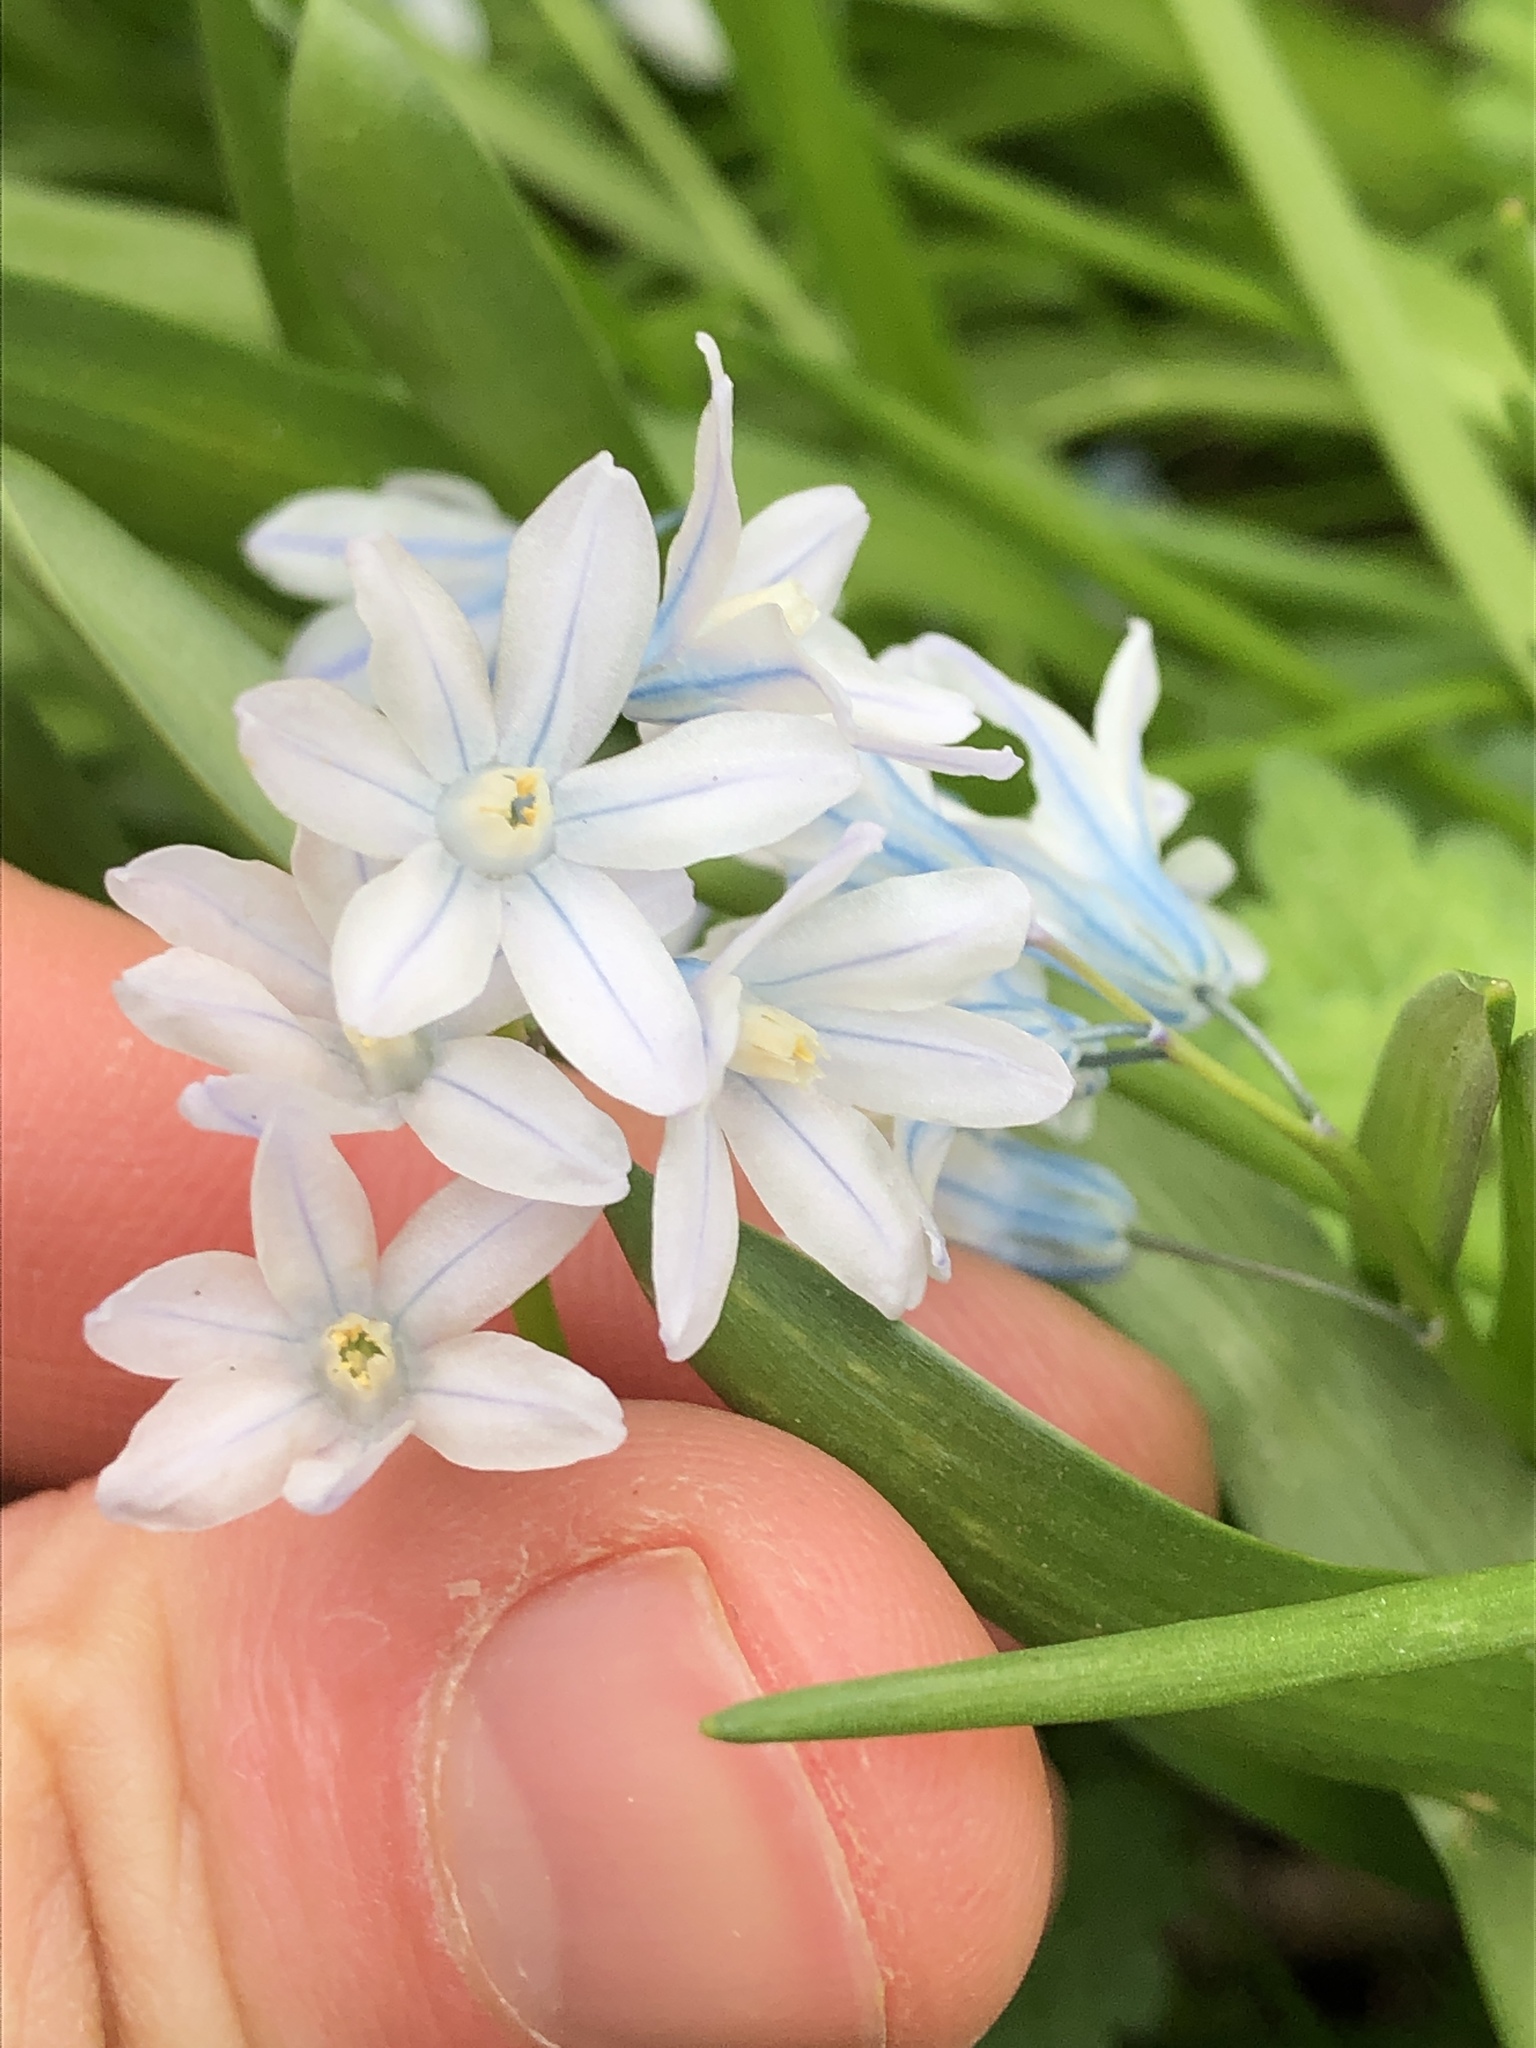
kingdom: Plantae
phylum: Tracheophyta
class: Liliopsida
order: Asparagales
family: Asparagaceae
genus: Puschkinia
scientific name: Puschkinia scilloides
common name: Striped squill
